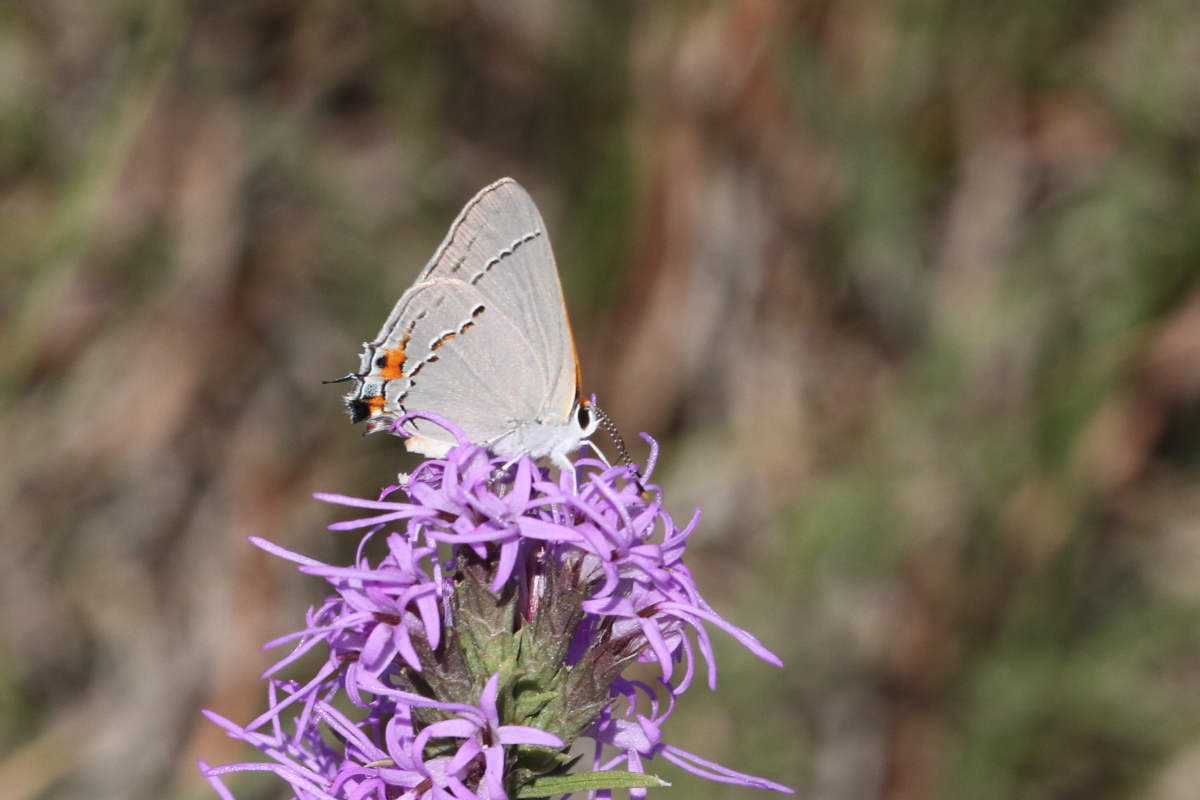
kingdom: Animalia
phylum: Arthropoda
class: Insecta
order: Lepidoptera
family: Lycaenidae
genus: Strymon
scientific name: Strymon melinus
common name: Gray hairstreak
